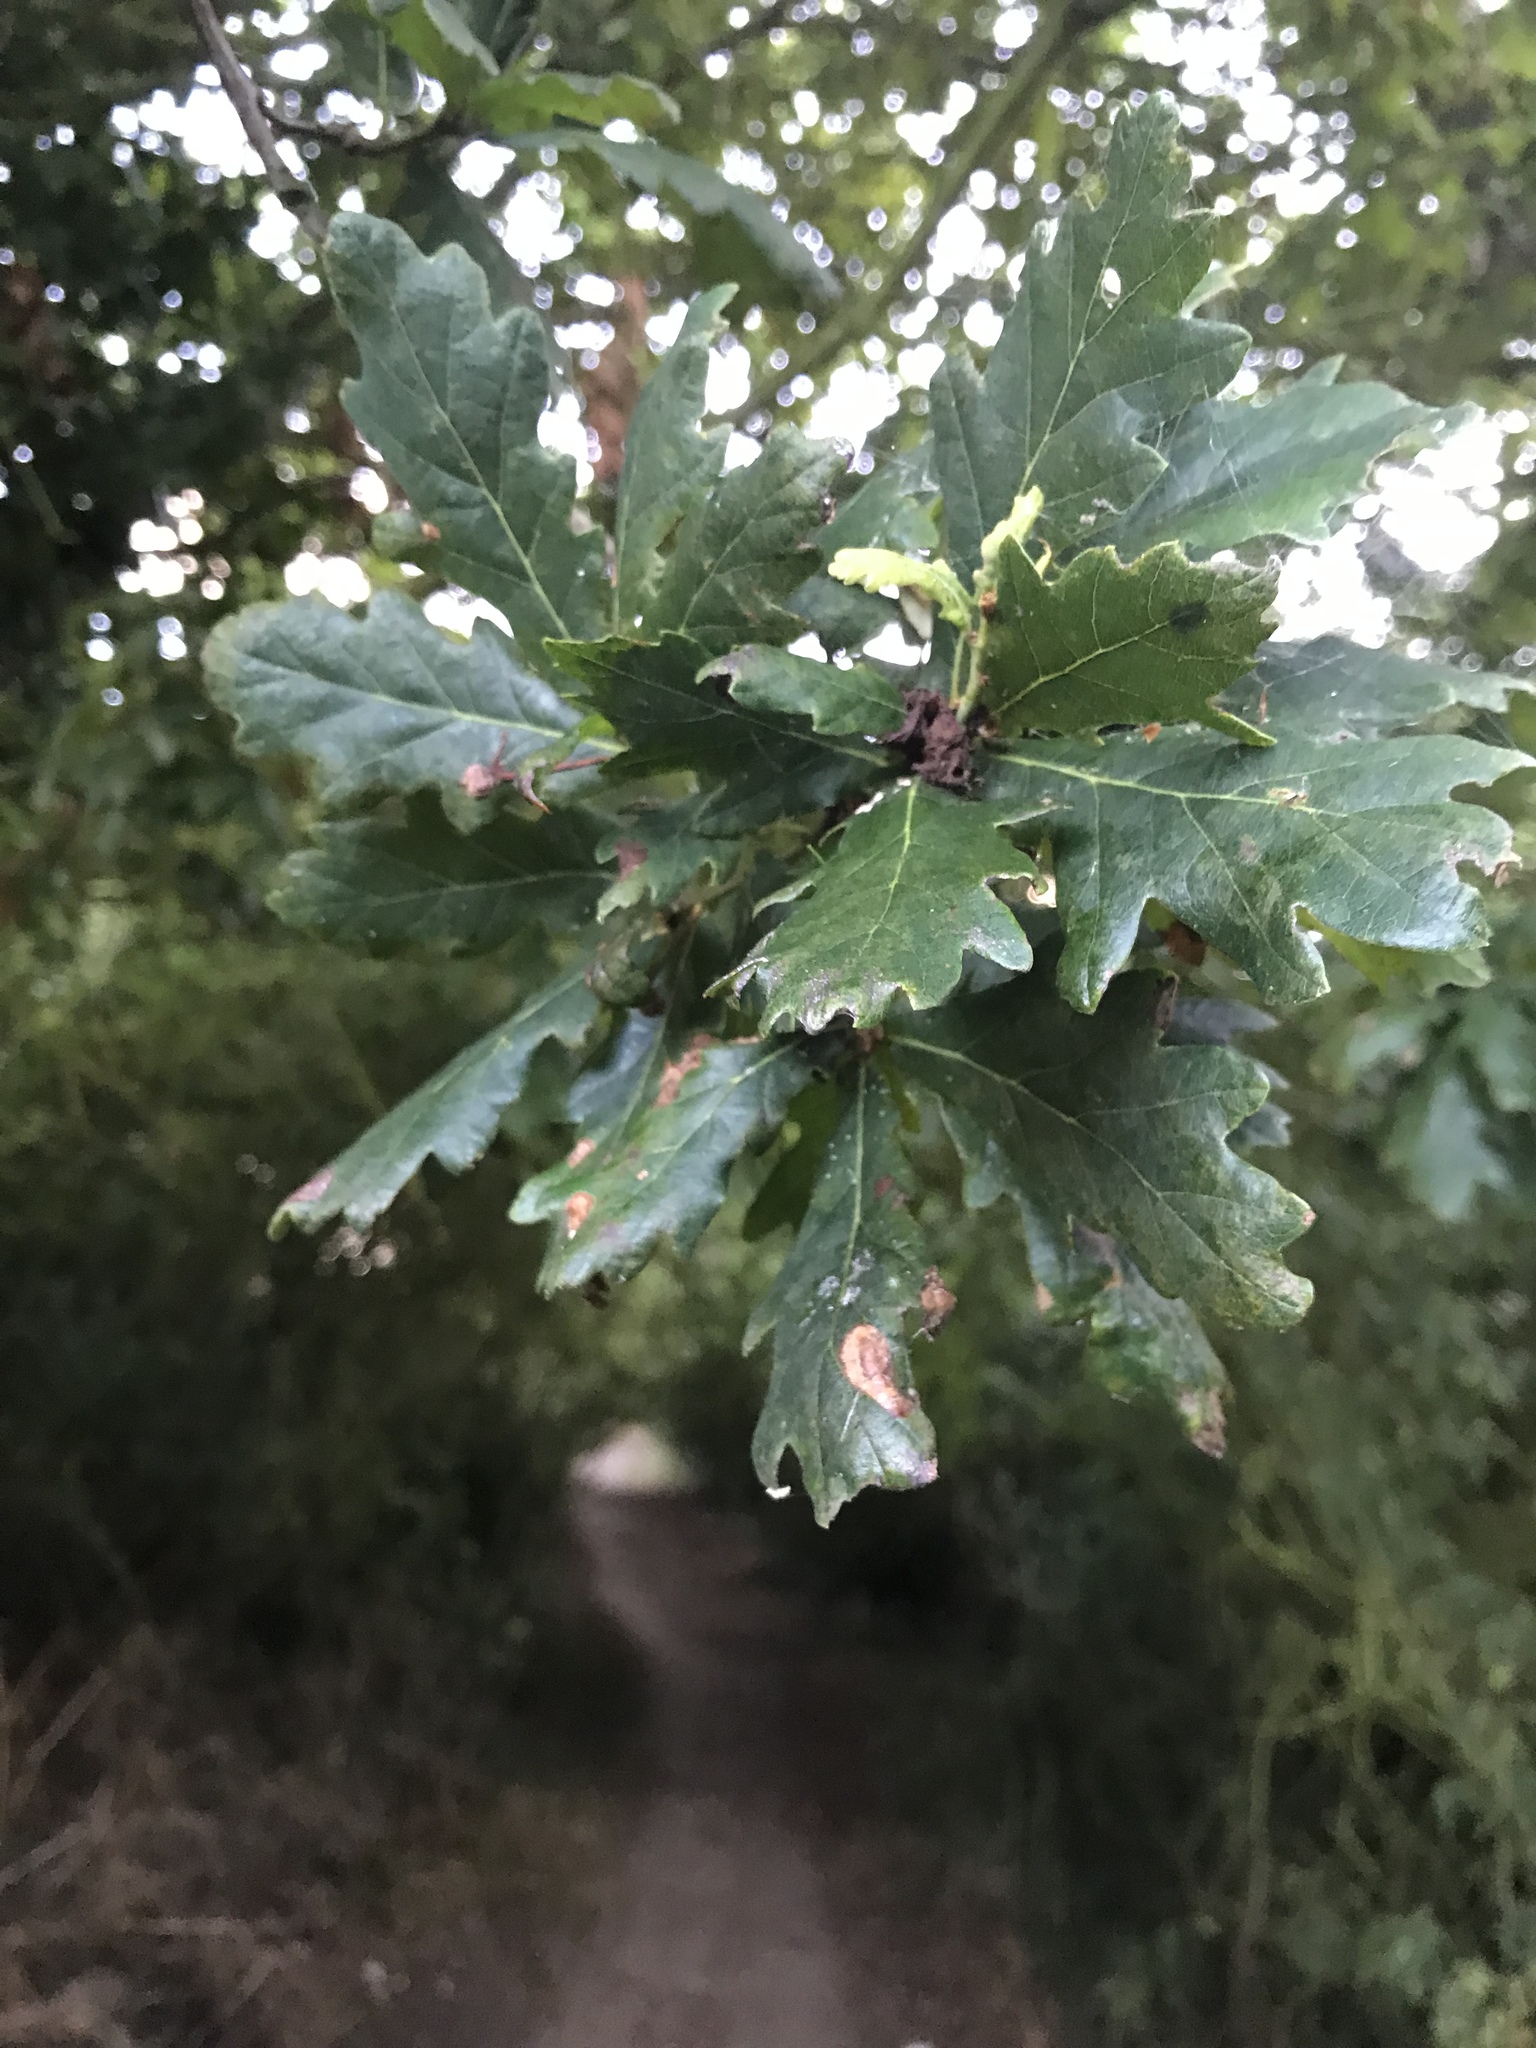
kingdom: Plantae
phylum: Tracheophyta
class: Magnoliopsida
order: Fagales
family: Fagaceae
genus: Quercus
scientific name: Quercus robur
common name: Pedunculate oak
